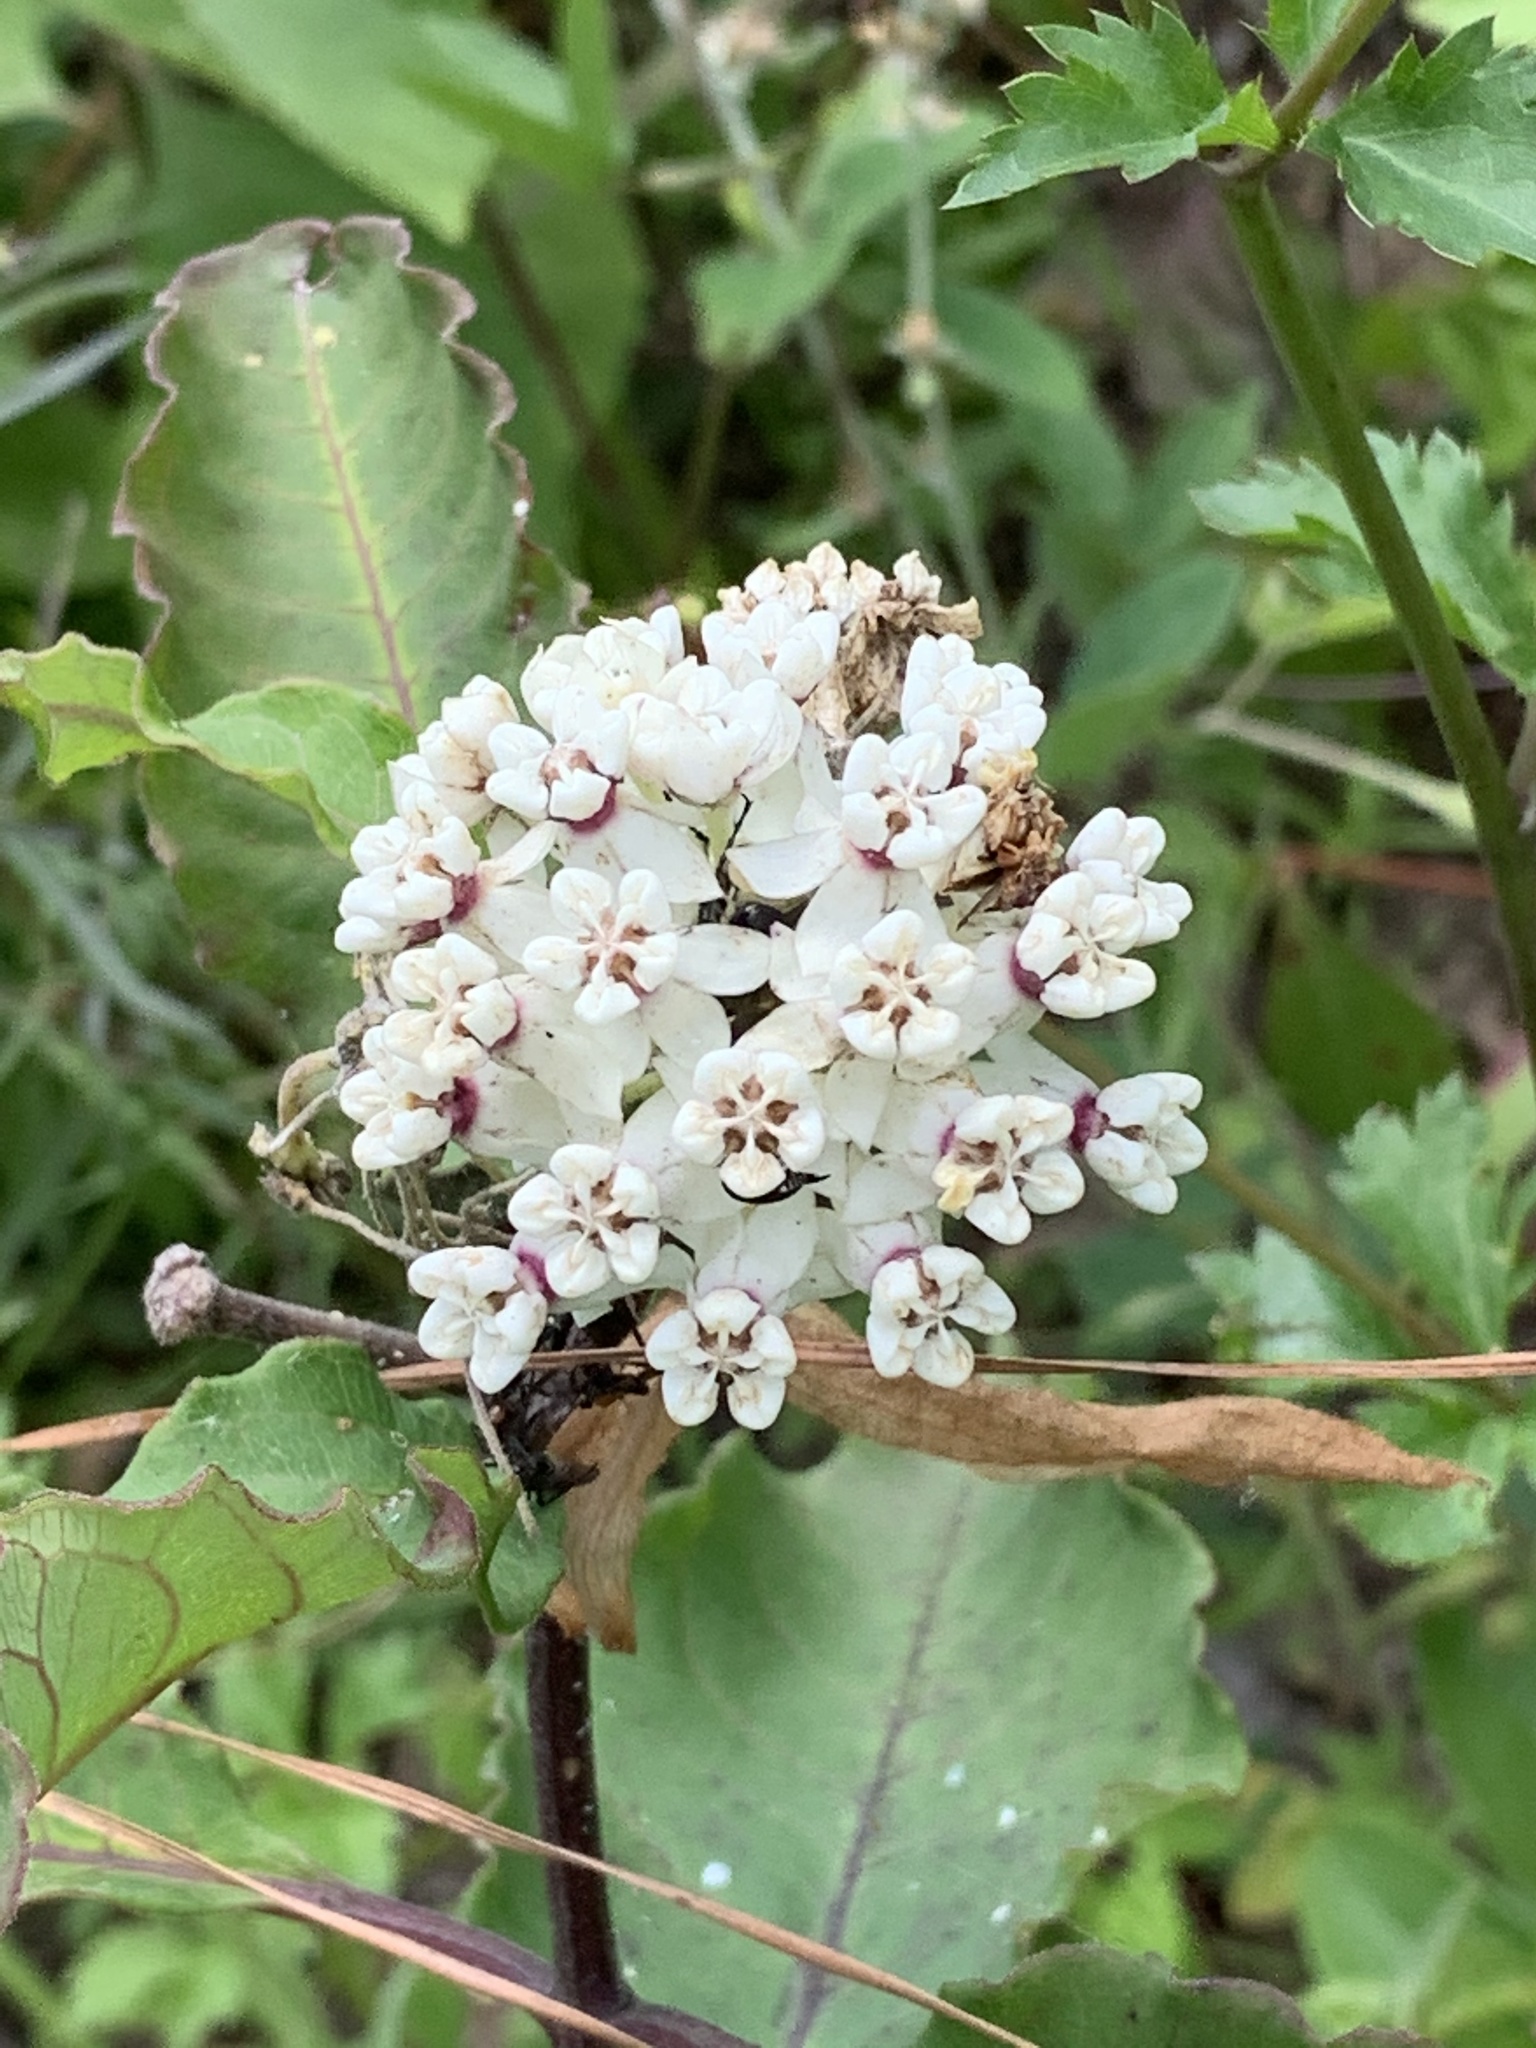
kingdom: Plantae
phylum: Tracheophyta
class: Magnoliopsida
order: Gentianales
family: Apocynaceae
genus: Asclepias
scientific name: Asclepias variegata
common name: Variegated milkweed
